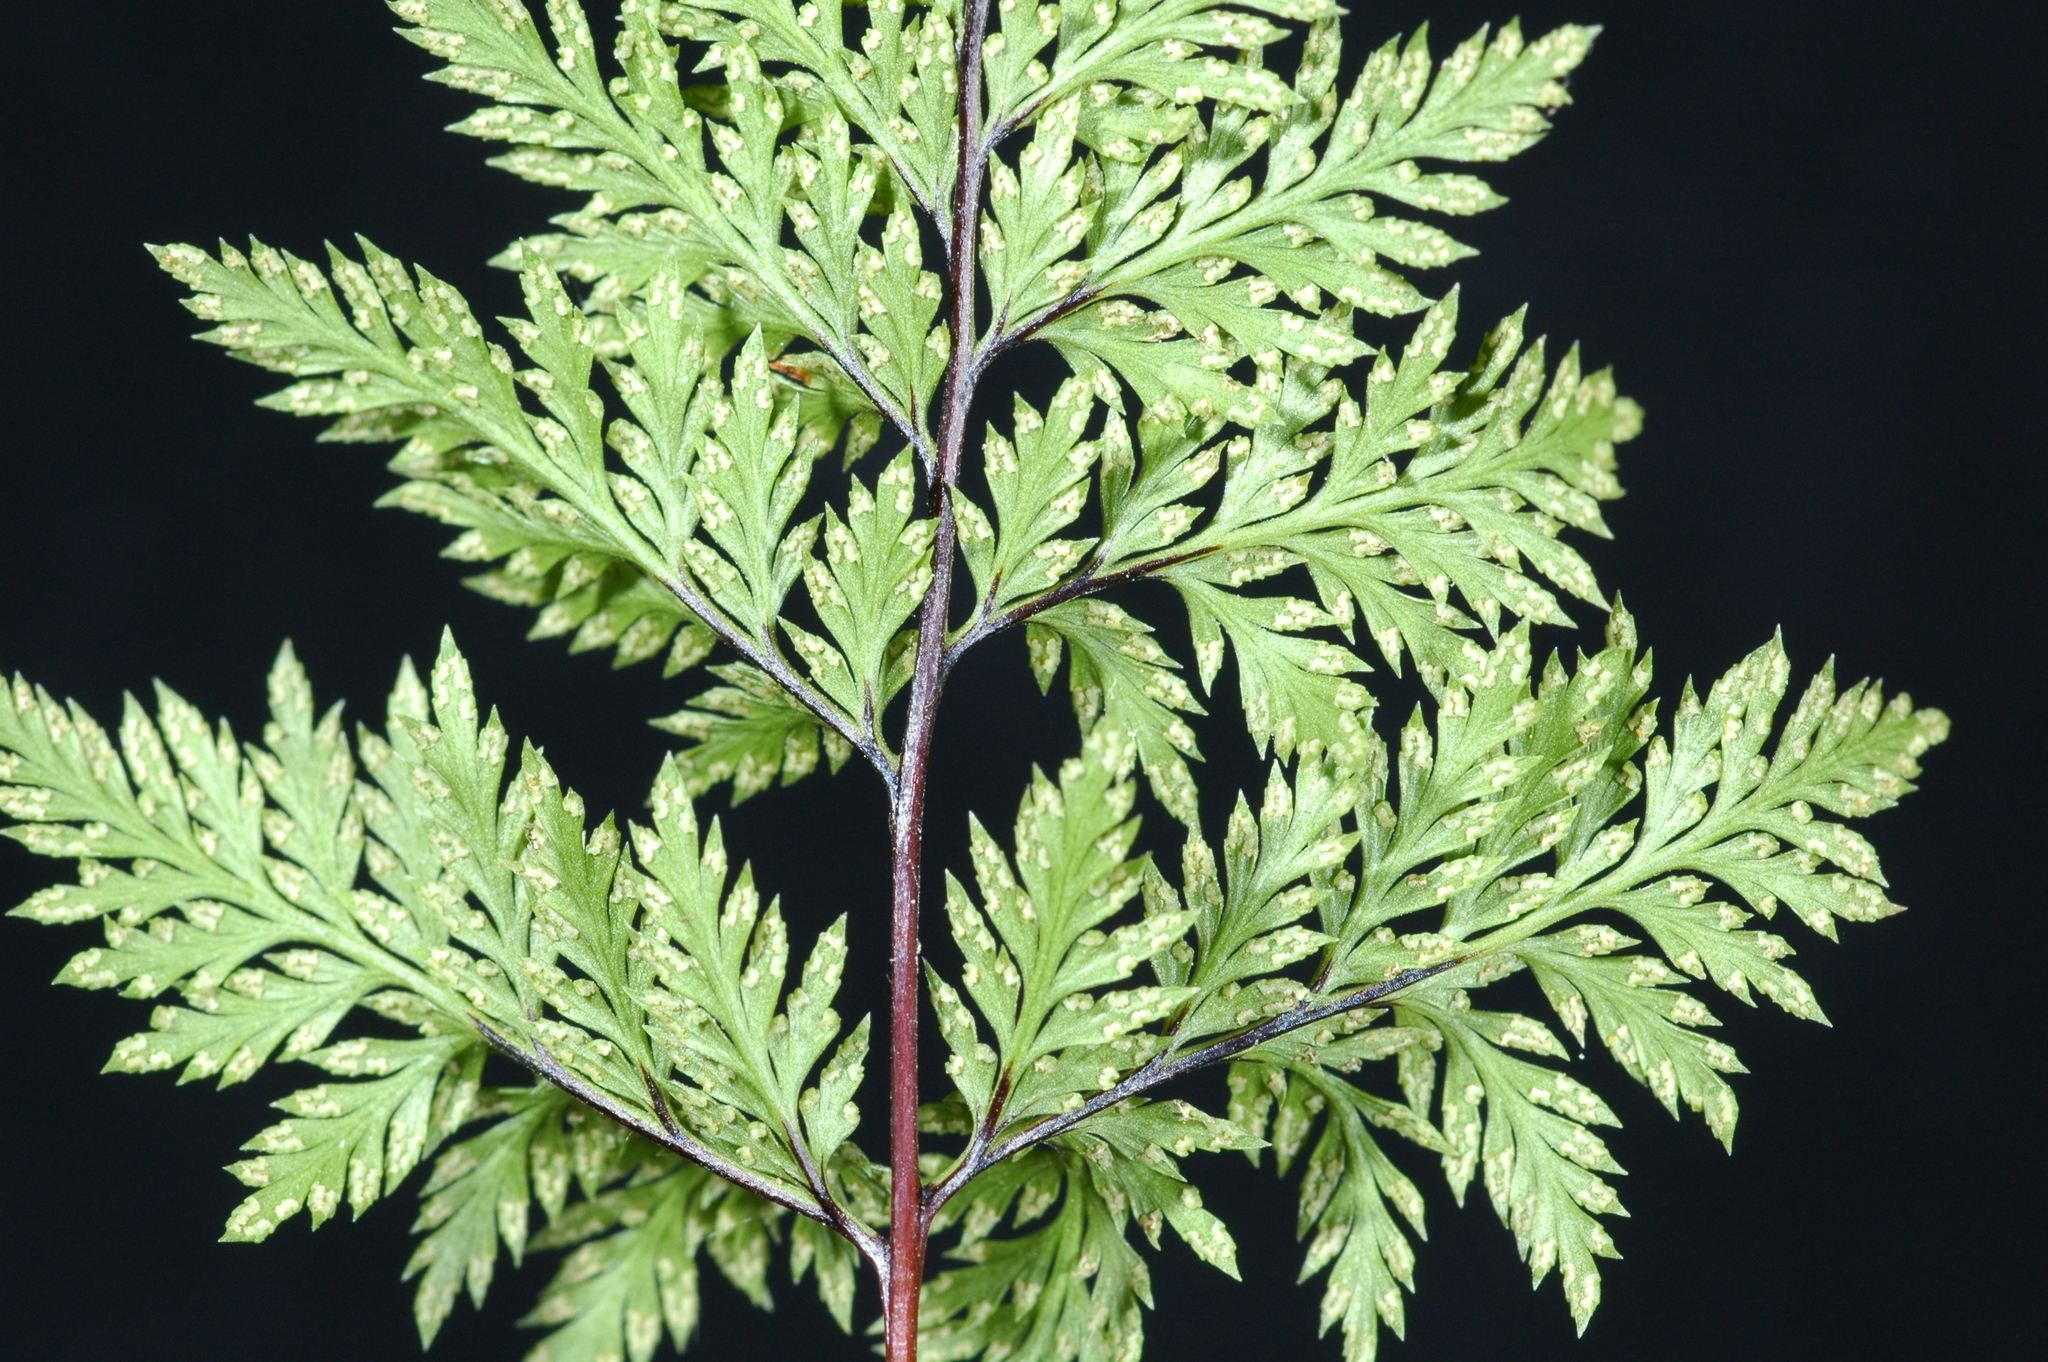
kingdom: Plantae
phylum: Tracheophyta
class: Polypodiopsida
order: Polypodiales
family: Pteridaceae
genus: Aspidotis
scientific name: Aspidotis californica
